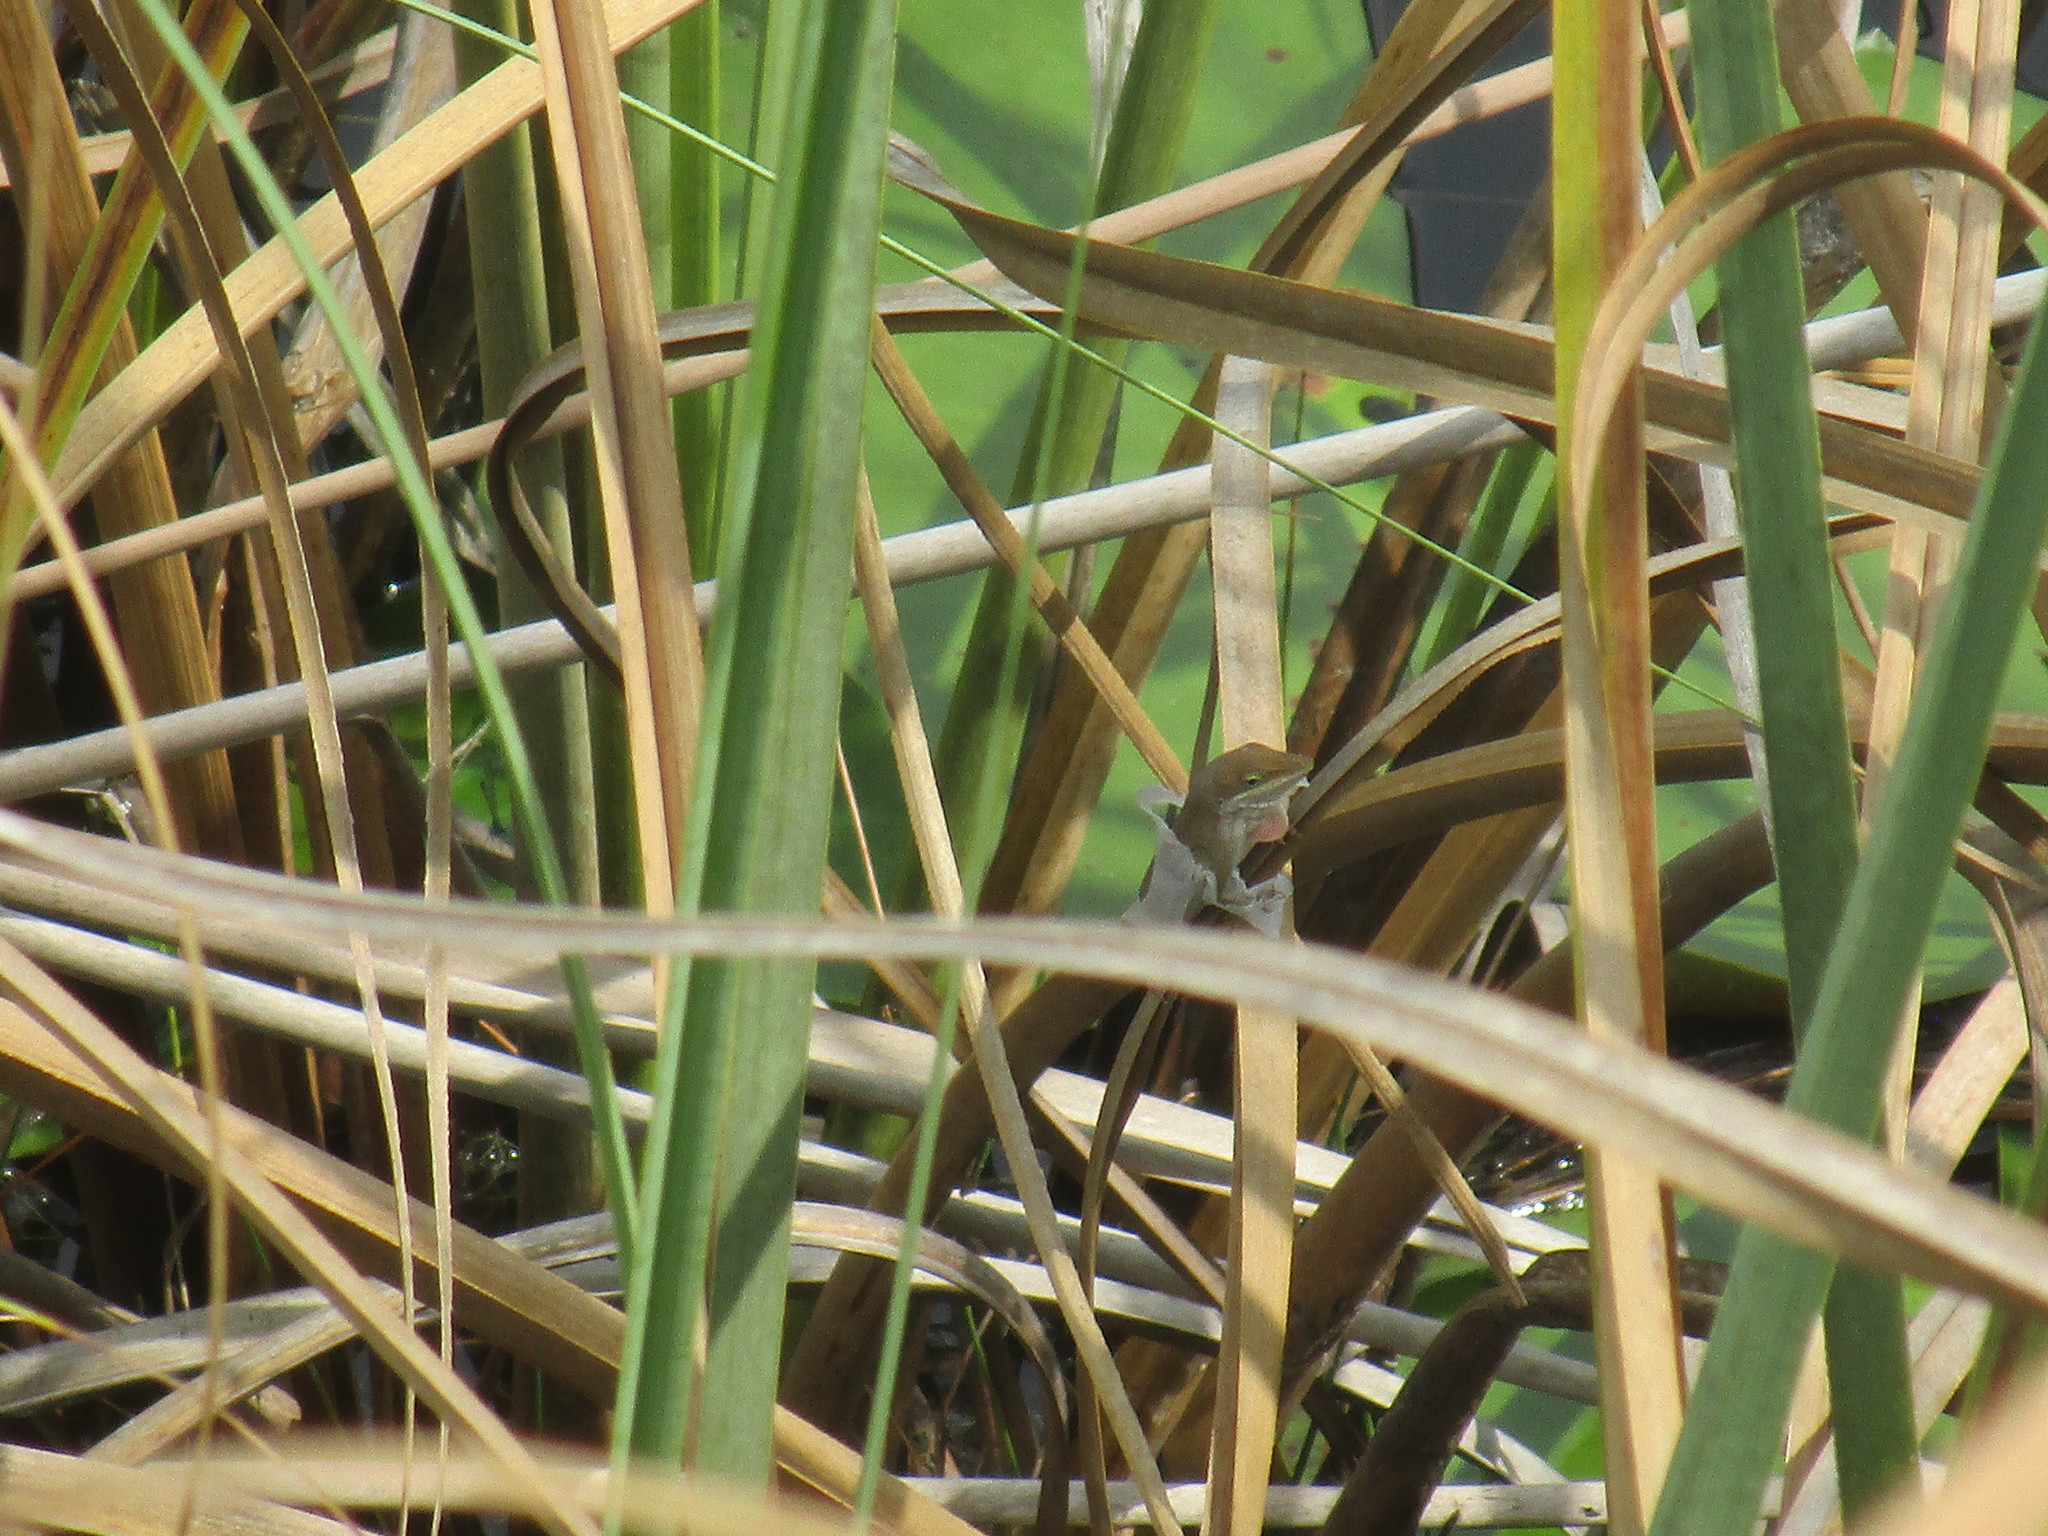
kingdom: Animalia
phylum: Chordata
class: Squamata
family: Dactyloidae
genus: Anolis
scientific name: Anolis carolinensis
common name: Green anole
